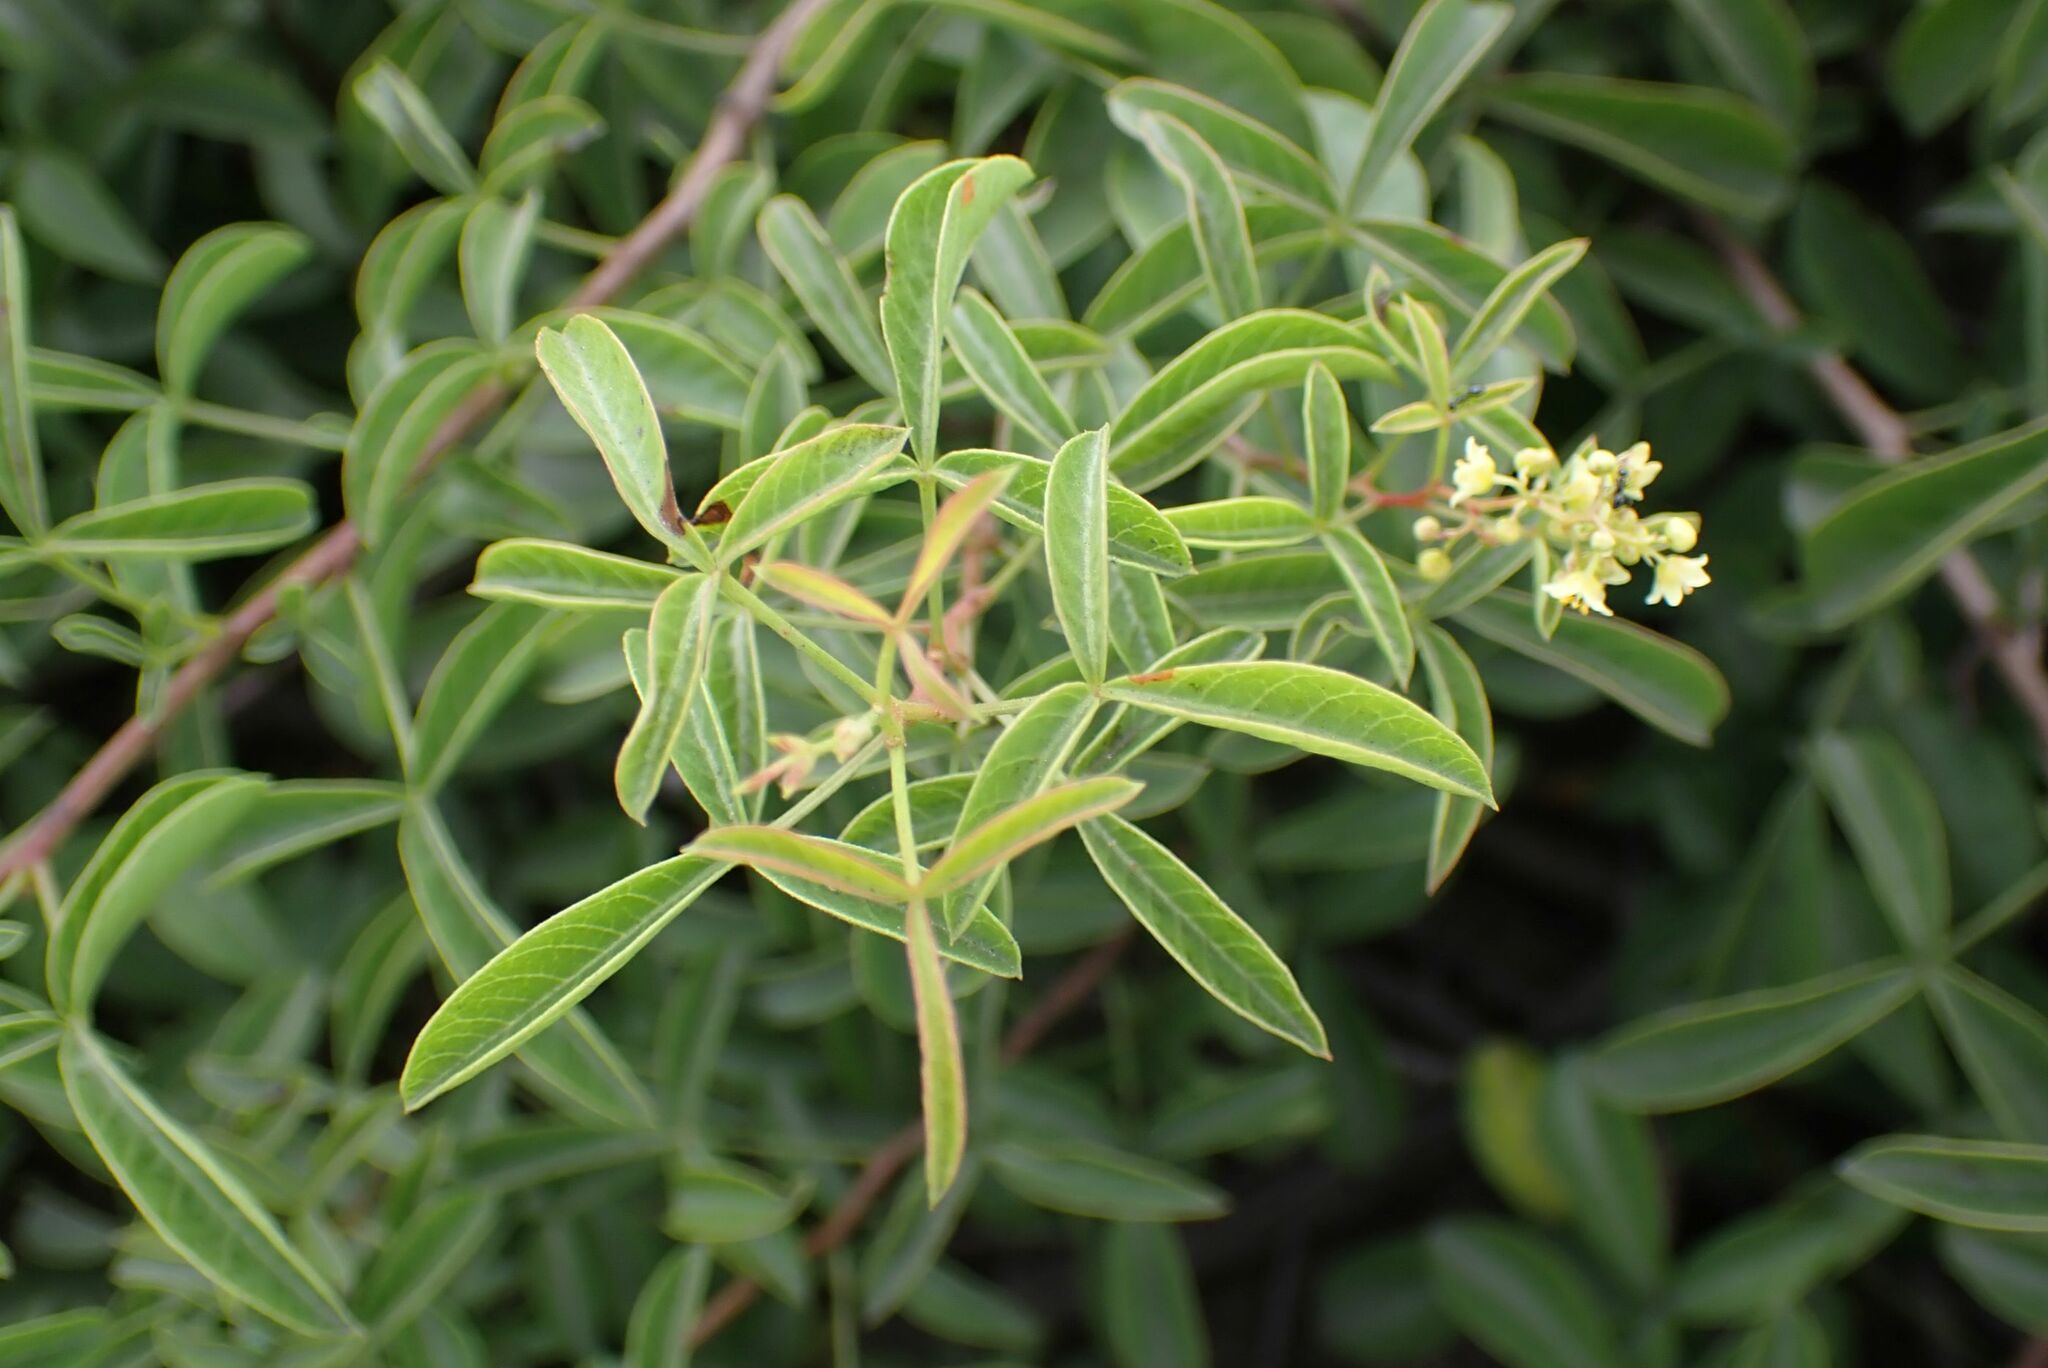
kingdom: Plantae
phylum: Tracheophyta
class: Magnoliopsida
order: Sapindales
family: Anacardiaceae
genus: Searsia
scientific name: Searsia rigida
